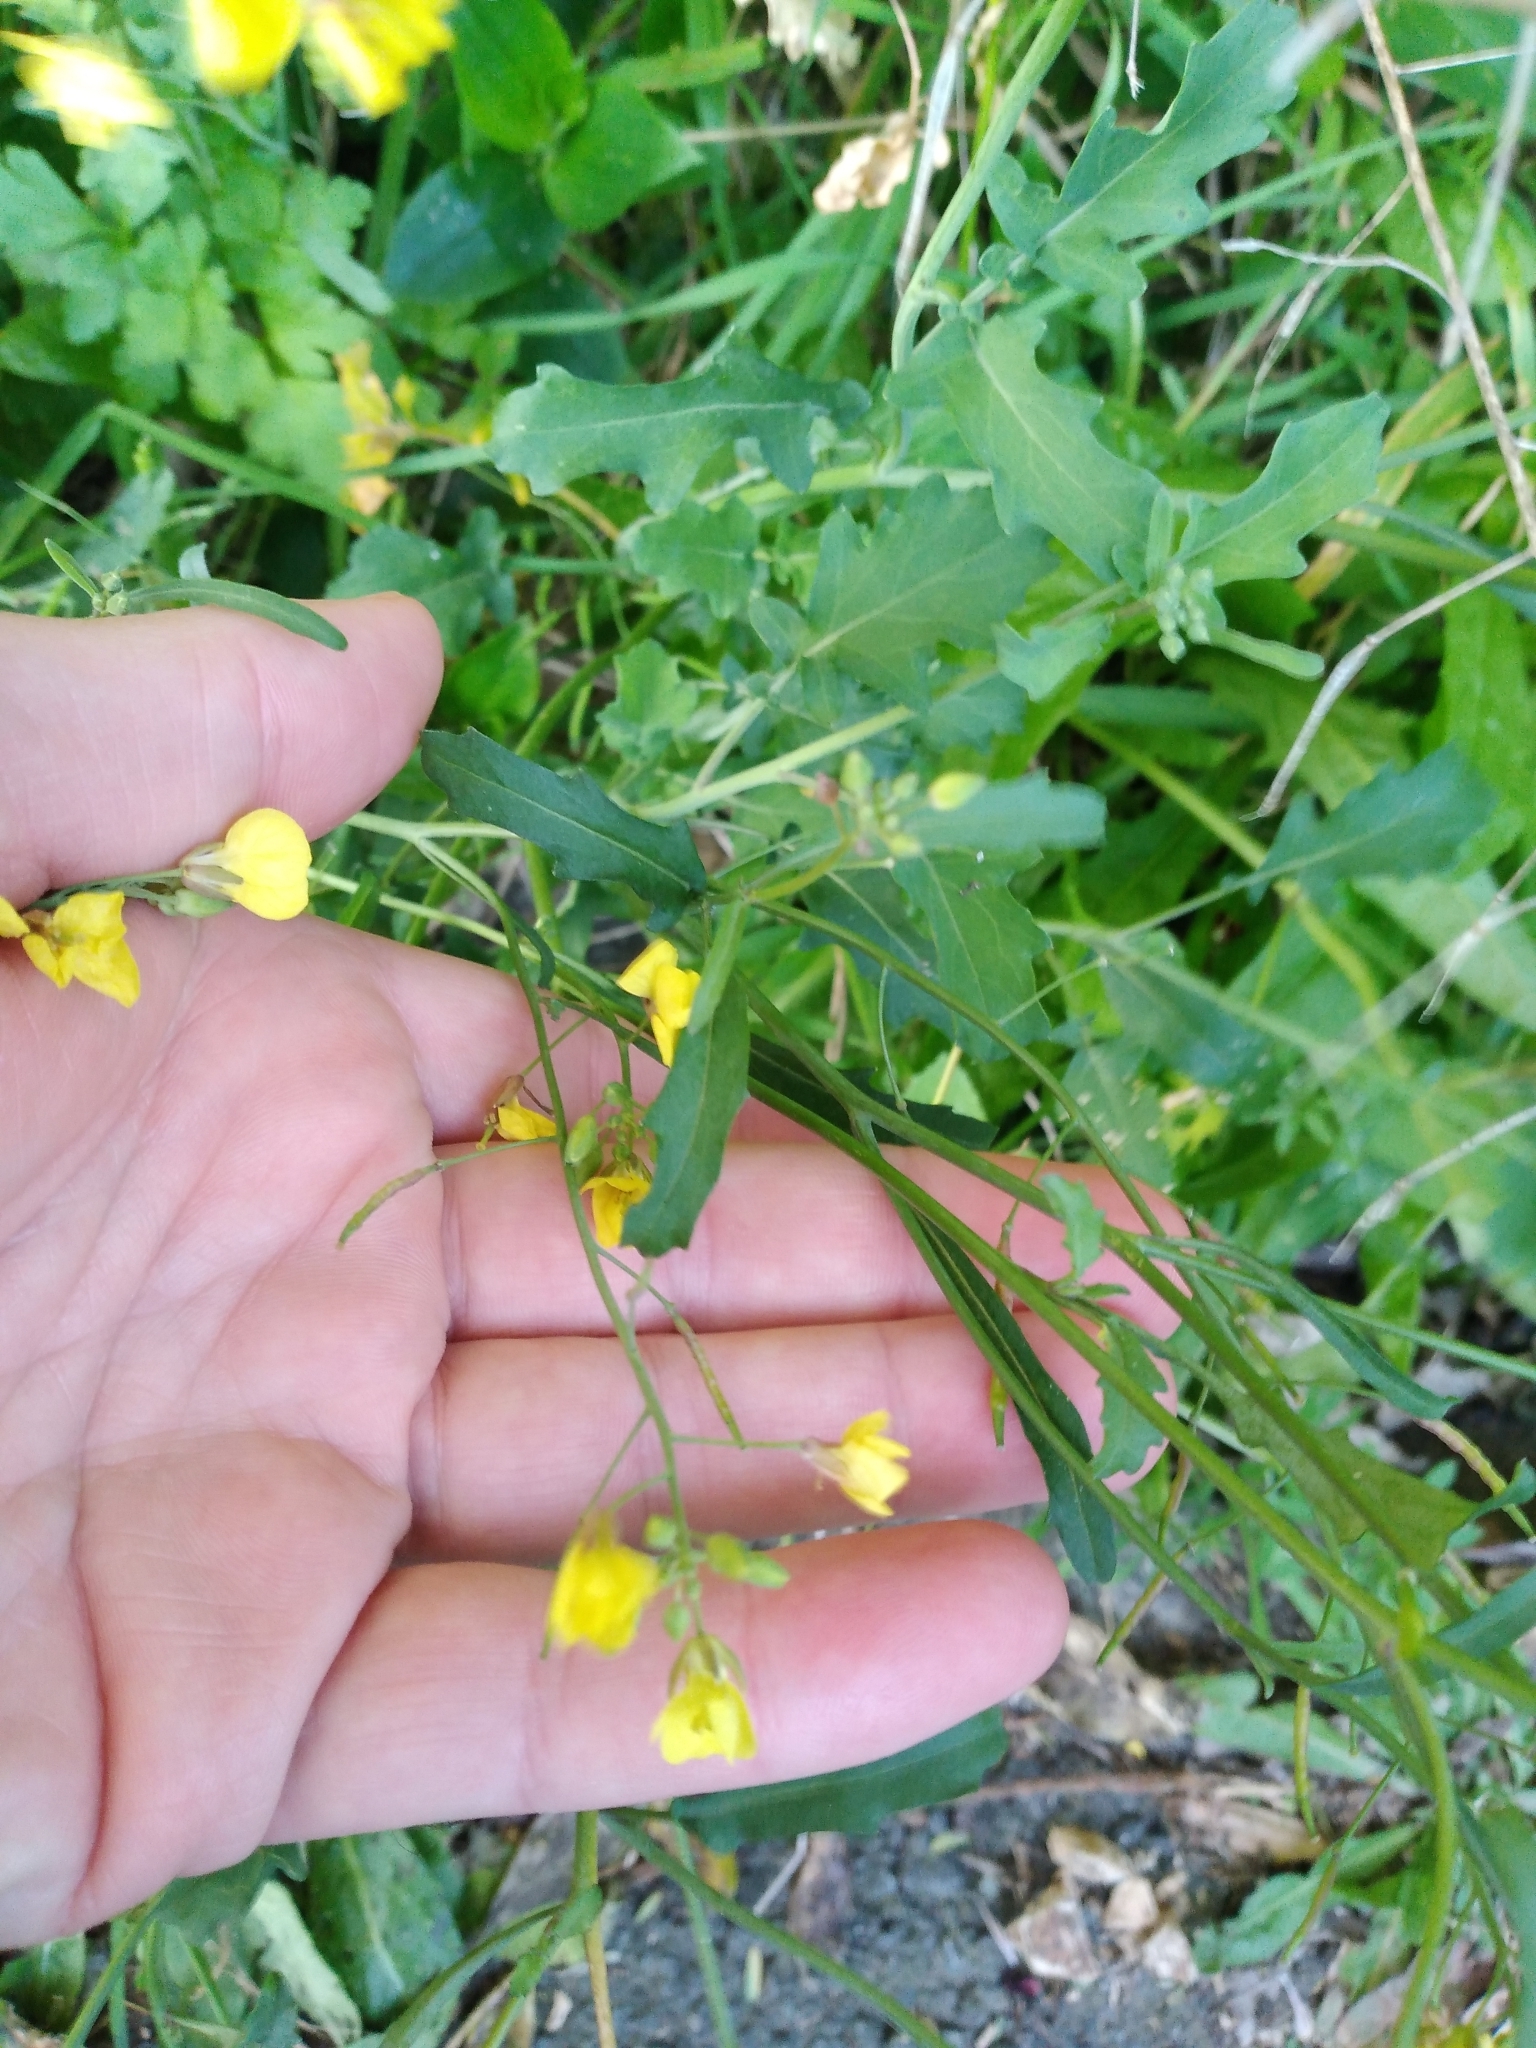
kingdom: Plantae
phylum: Tracheophyta
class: Magnoliopsida
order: Brassicales
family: Brassicaceae
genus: Brassica
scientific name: Brassica fruticulosa
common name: Twiggy turnip
